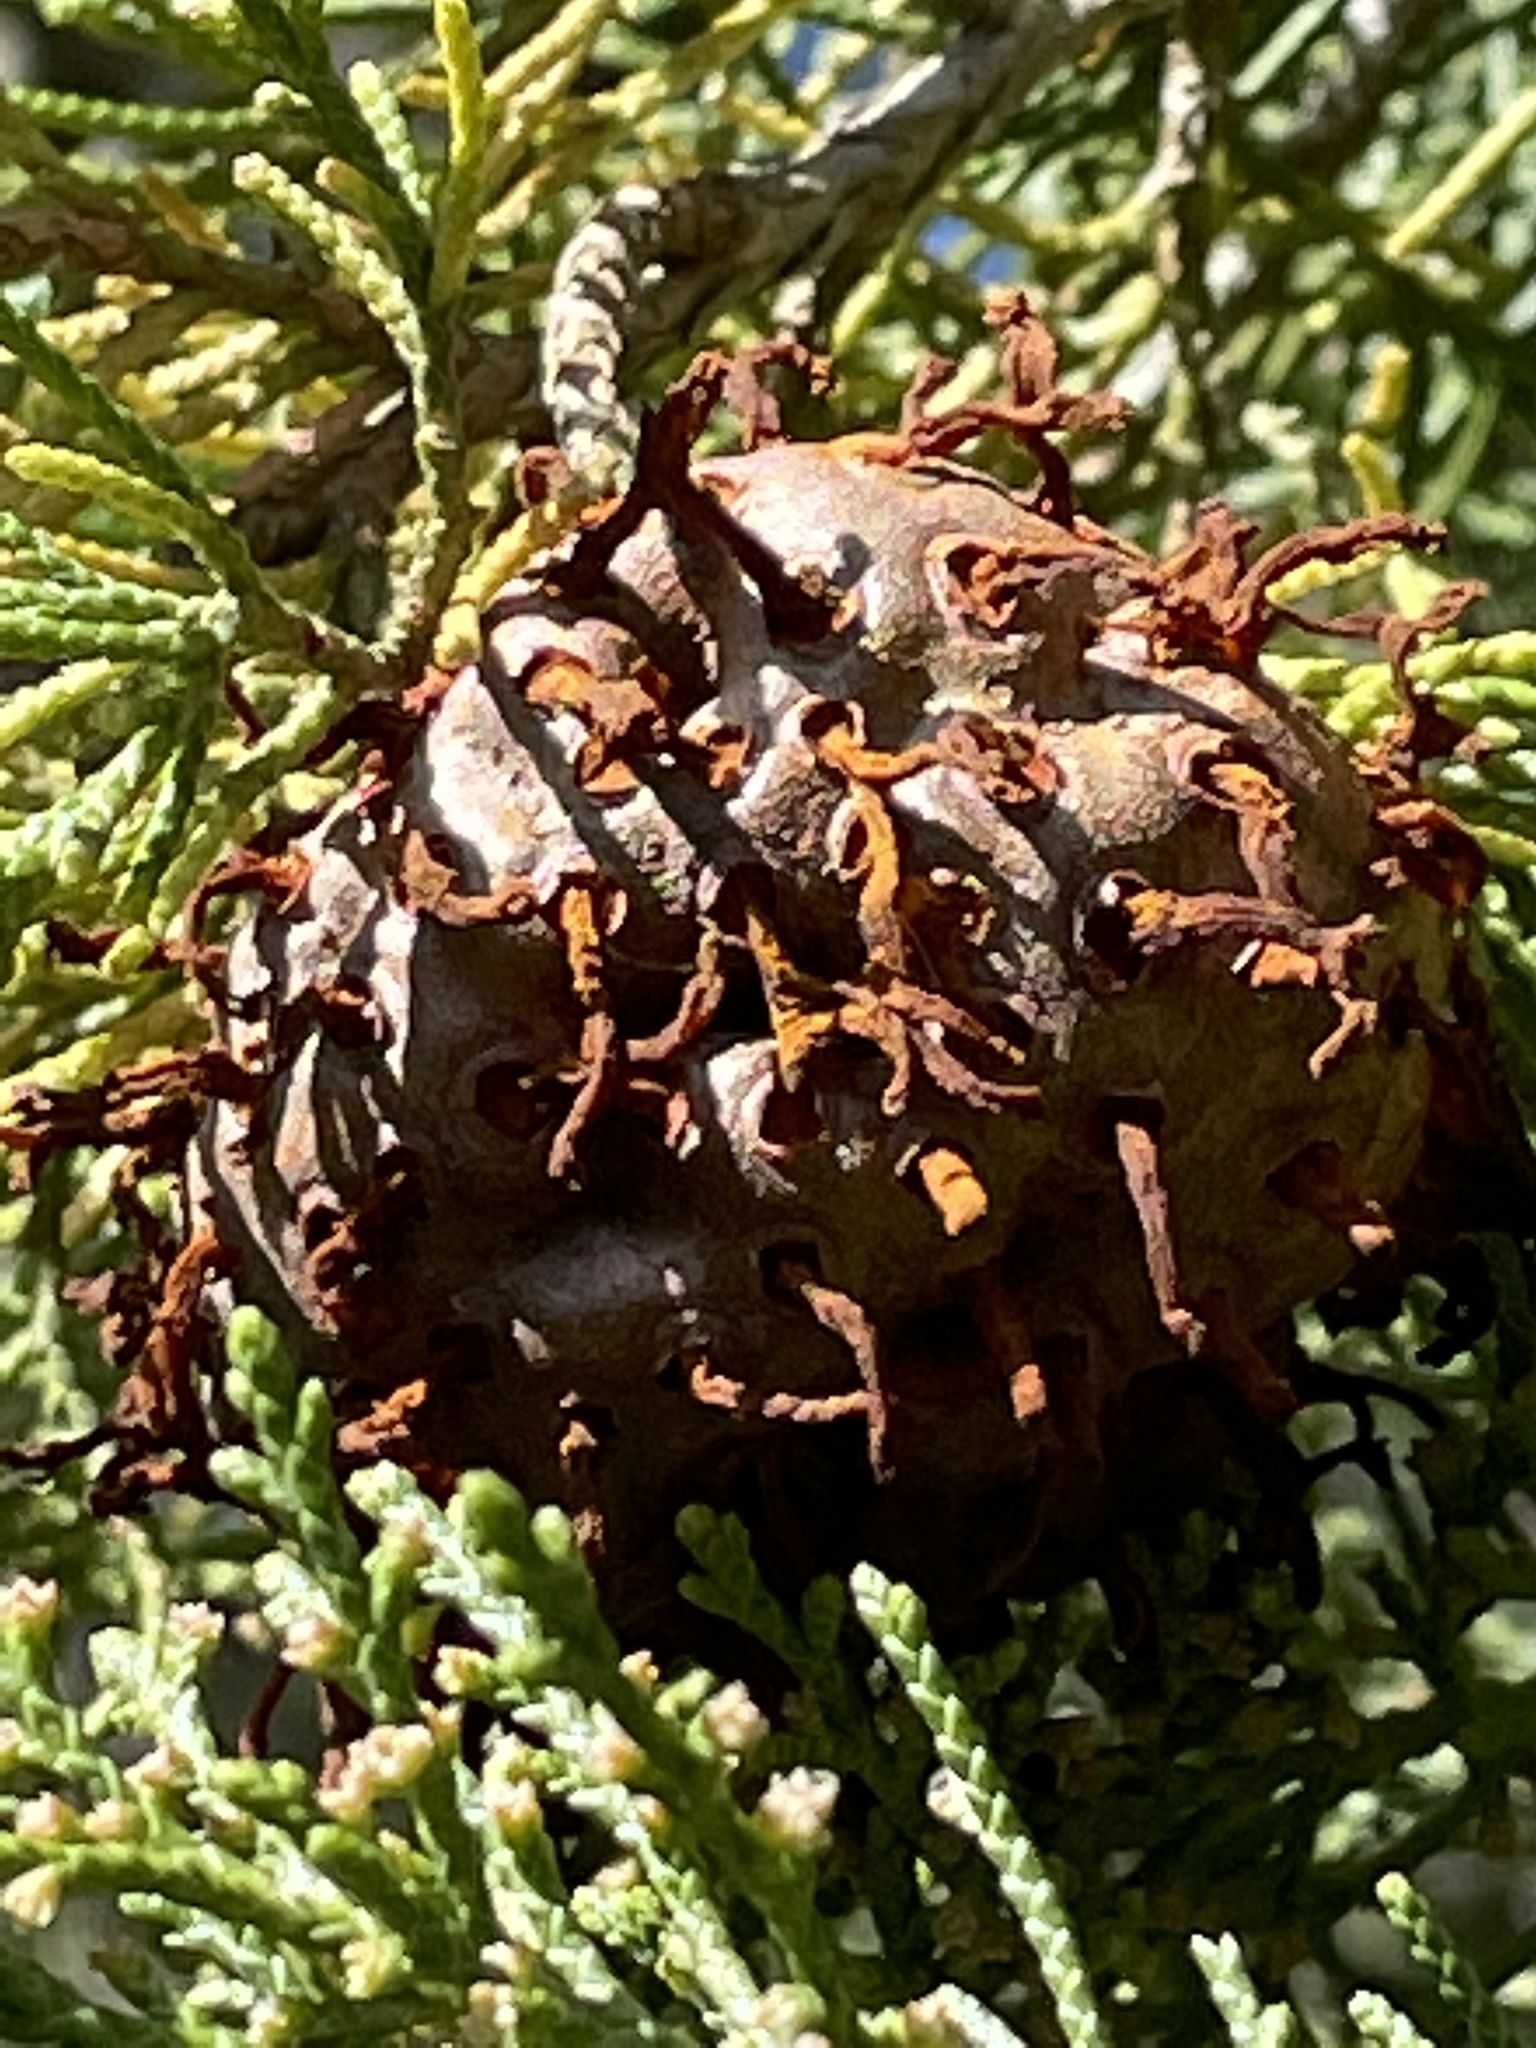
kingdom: Fungi
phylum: Basidiomycota
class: Pucciniomycetes
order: Pucciniales
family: Gymnosporangiaceae
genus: Gymnosporangium
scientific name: Gymnosporangium juniperi-virginianae
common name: Juniper-apple rust
